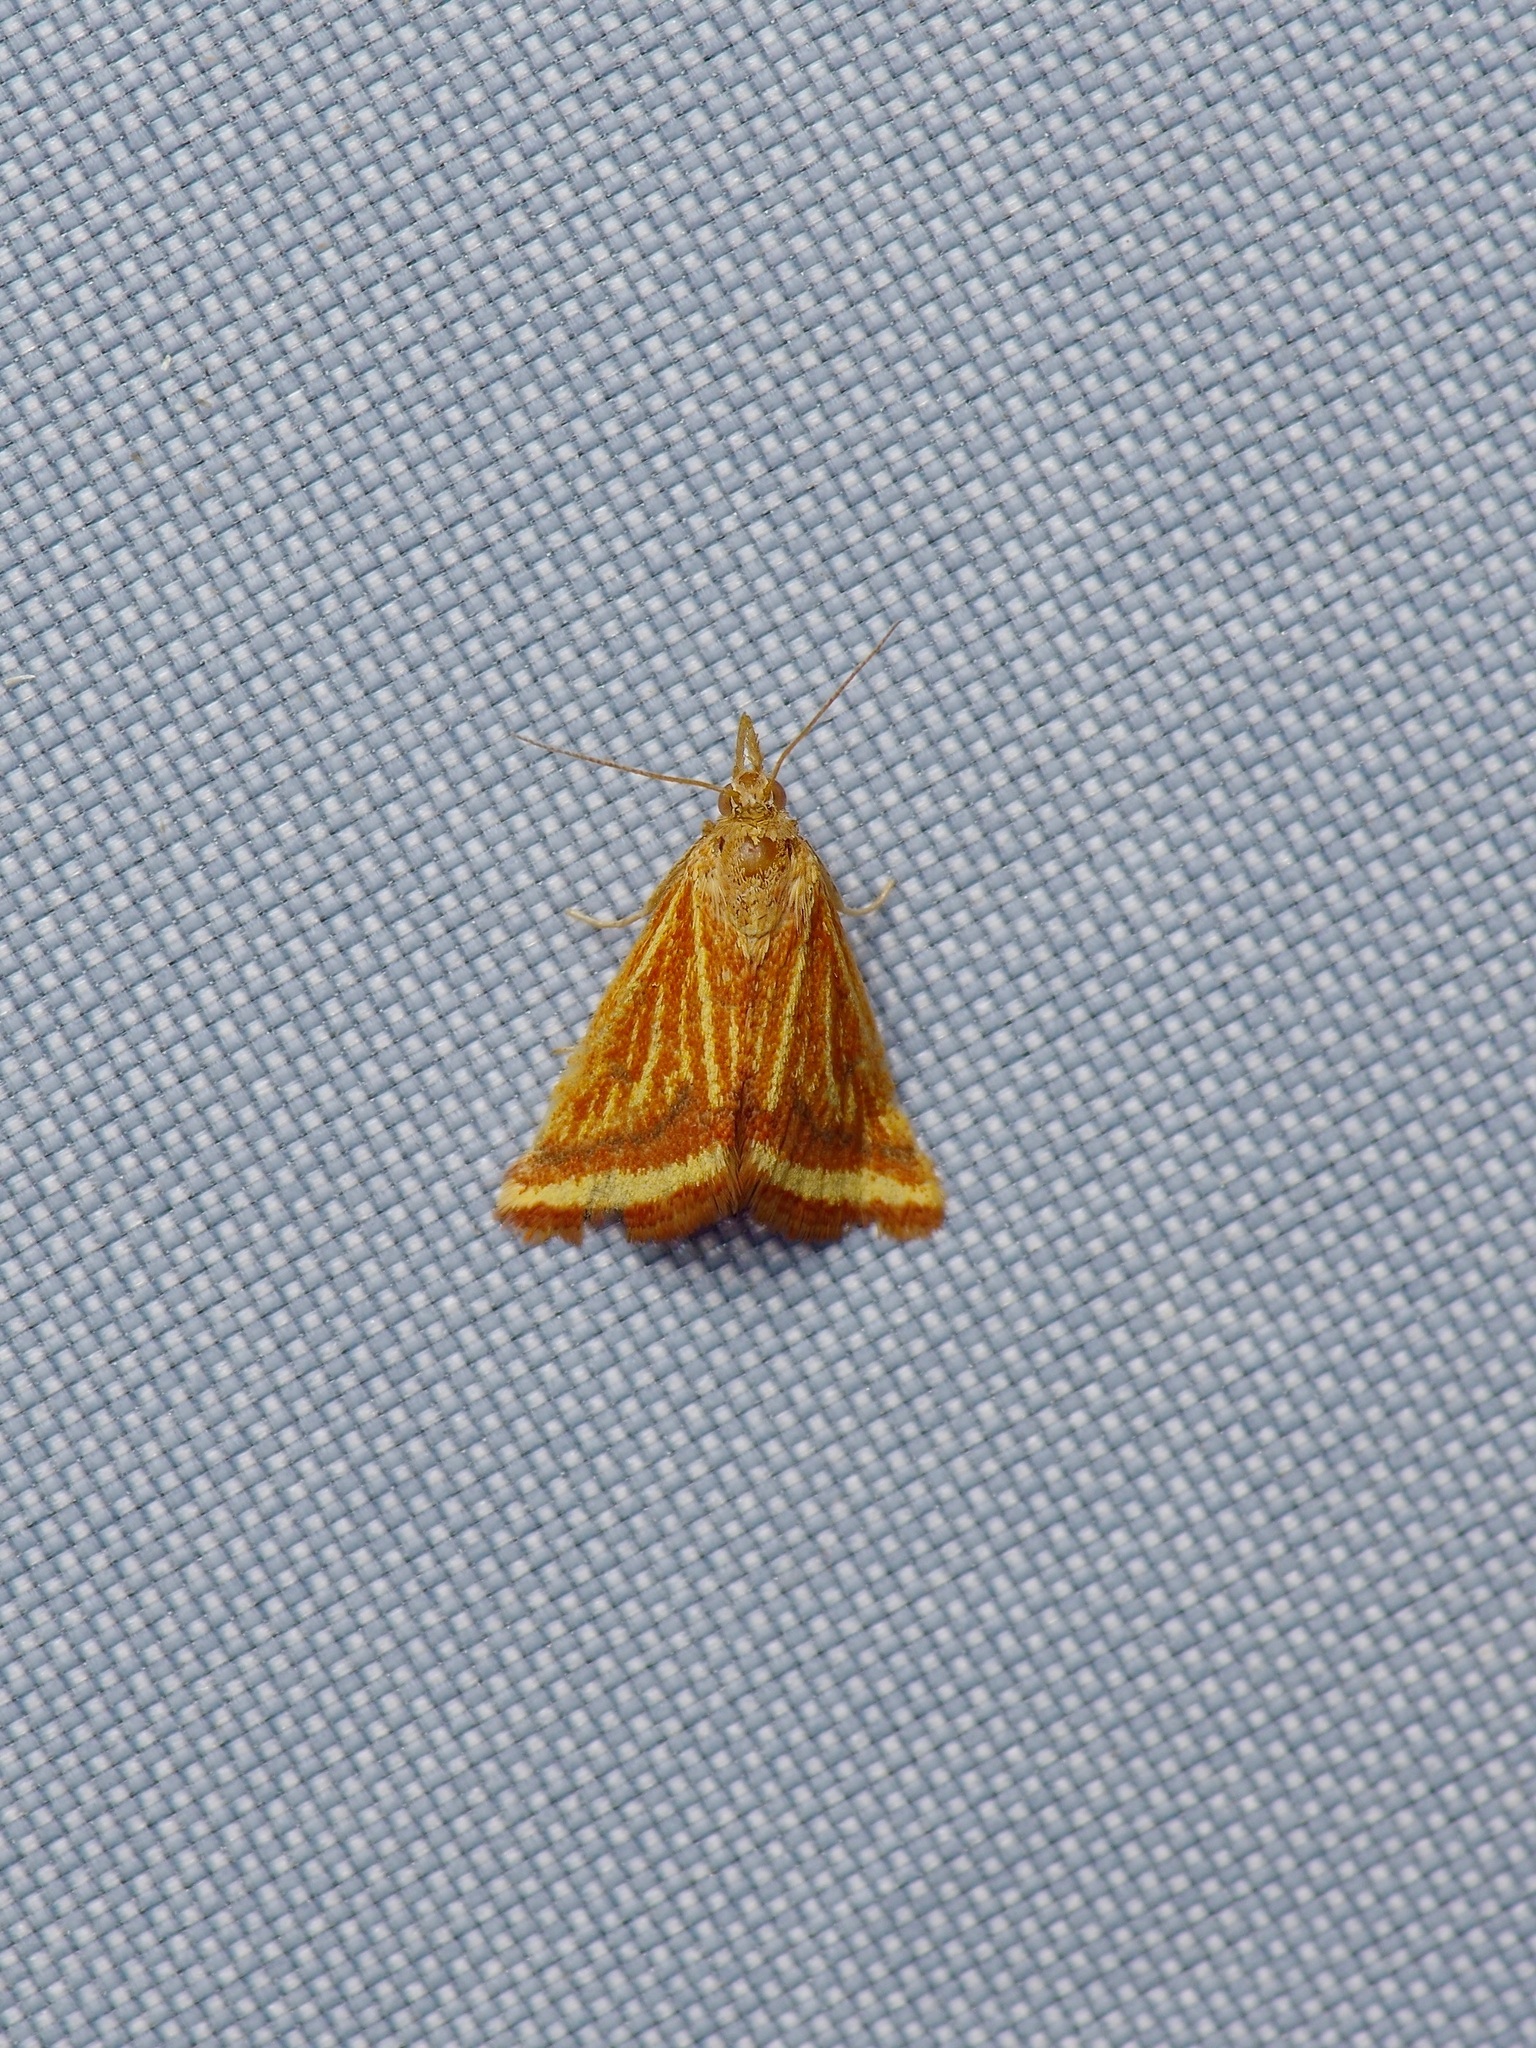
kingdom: Animalia
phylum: Arthropoda
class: Insecta
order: Lepidoptera
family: Crambidae
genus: Microtheoris
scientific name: Microtheoris ophionalis
